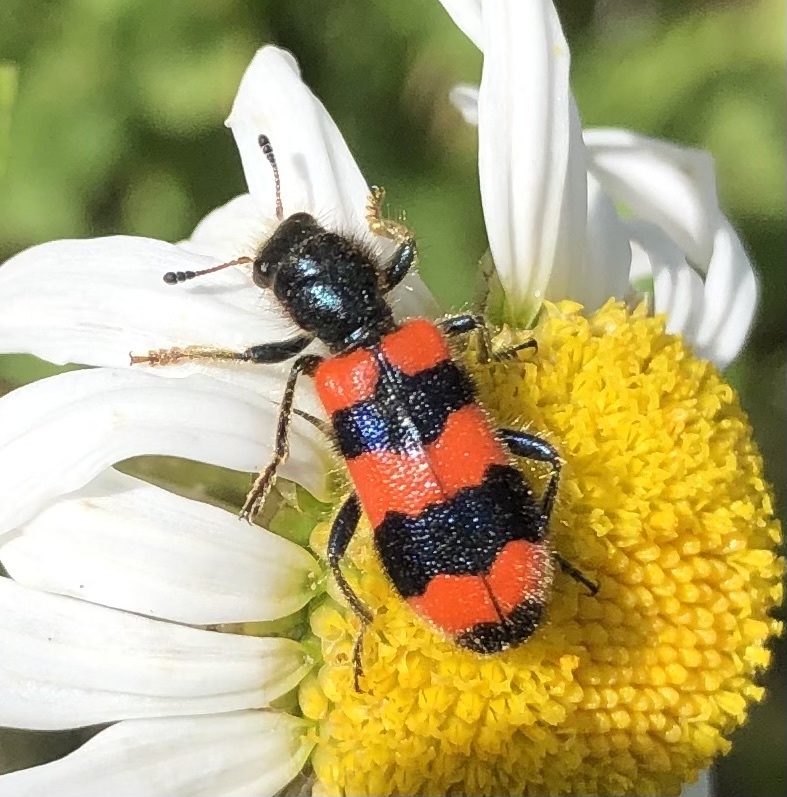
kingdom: Animalia
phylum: Arthropoda
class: Insecta
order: Coleoptera
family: Cleridae
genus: Trichodes
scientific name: Trichodes apiarius
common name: Bee-eating beetle
